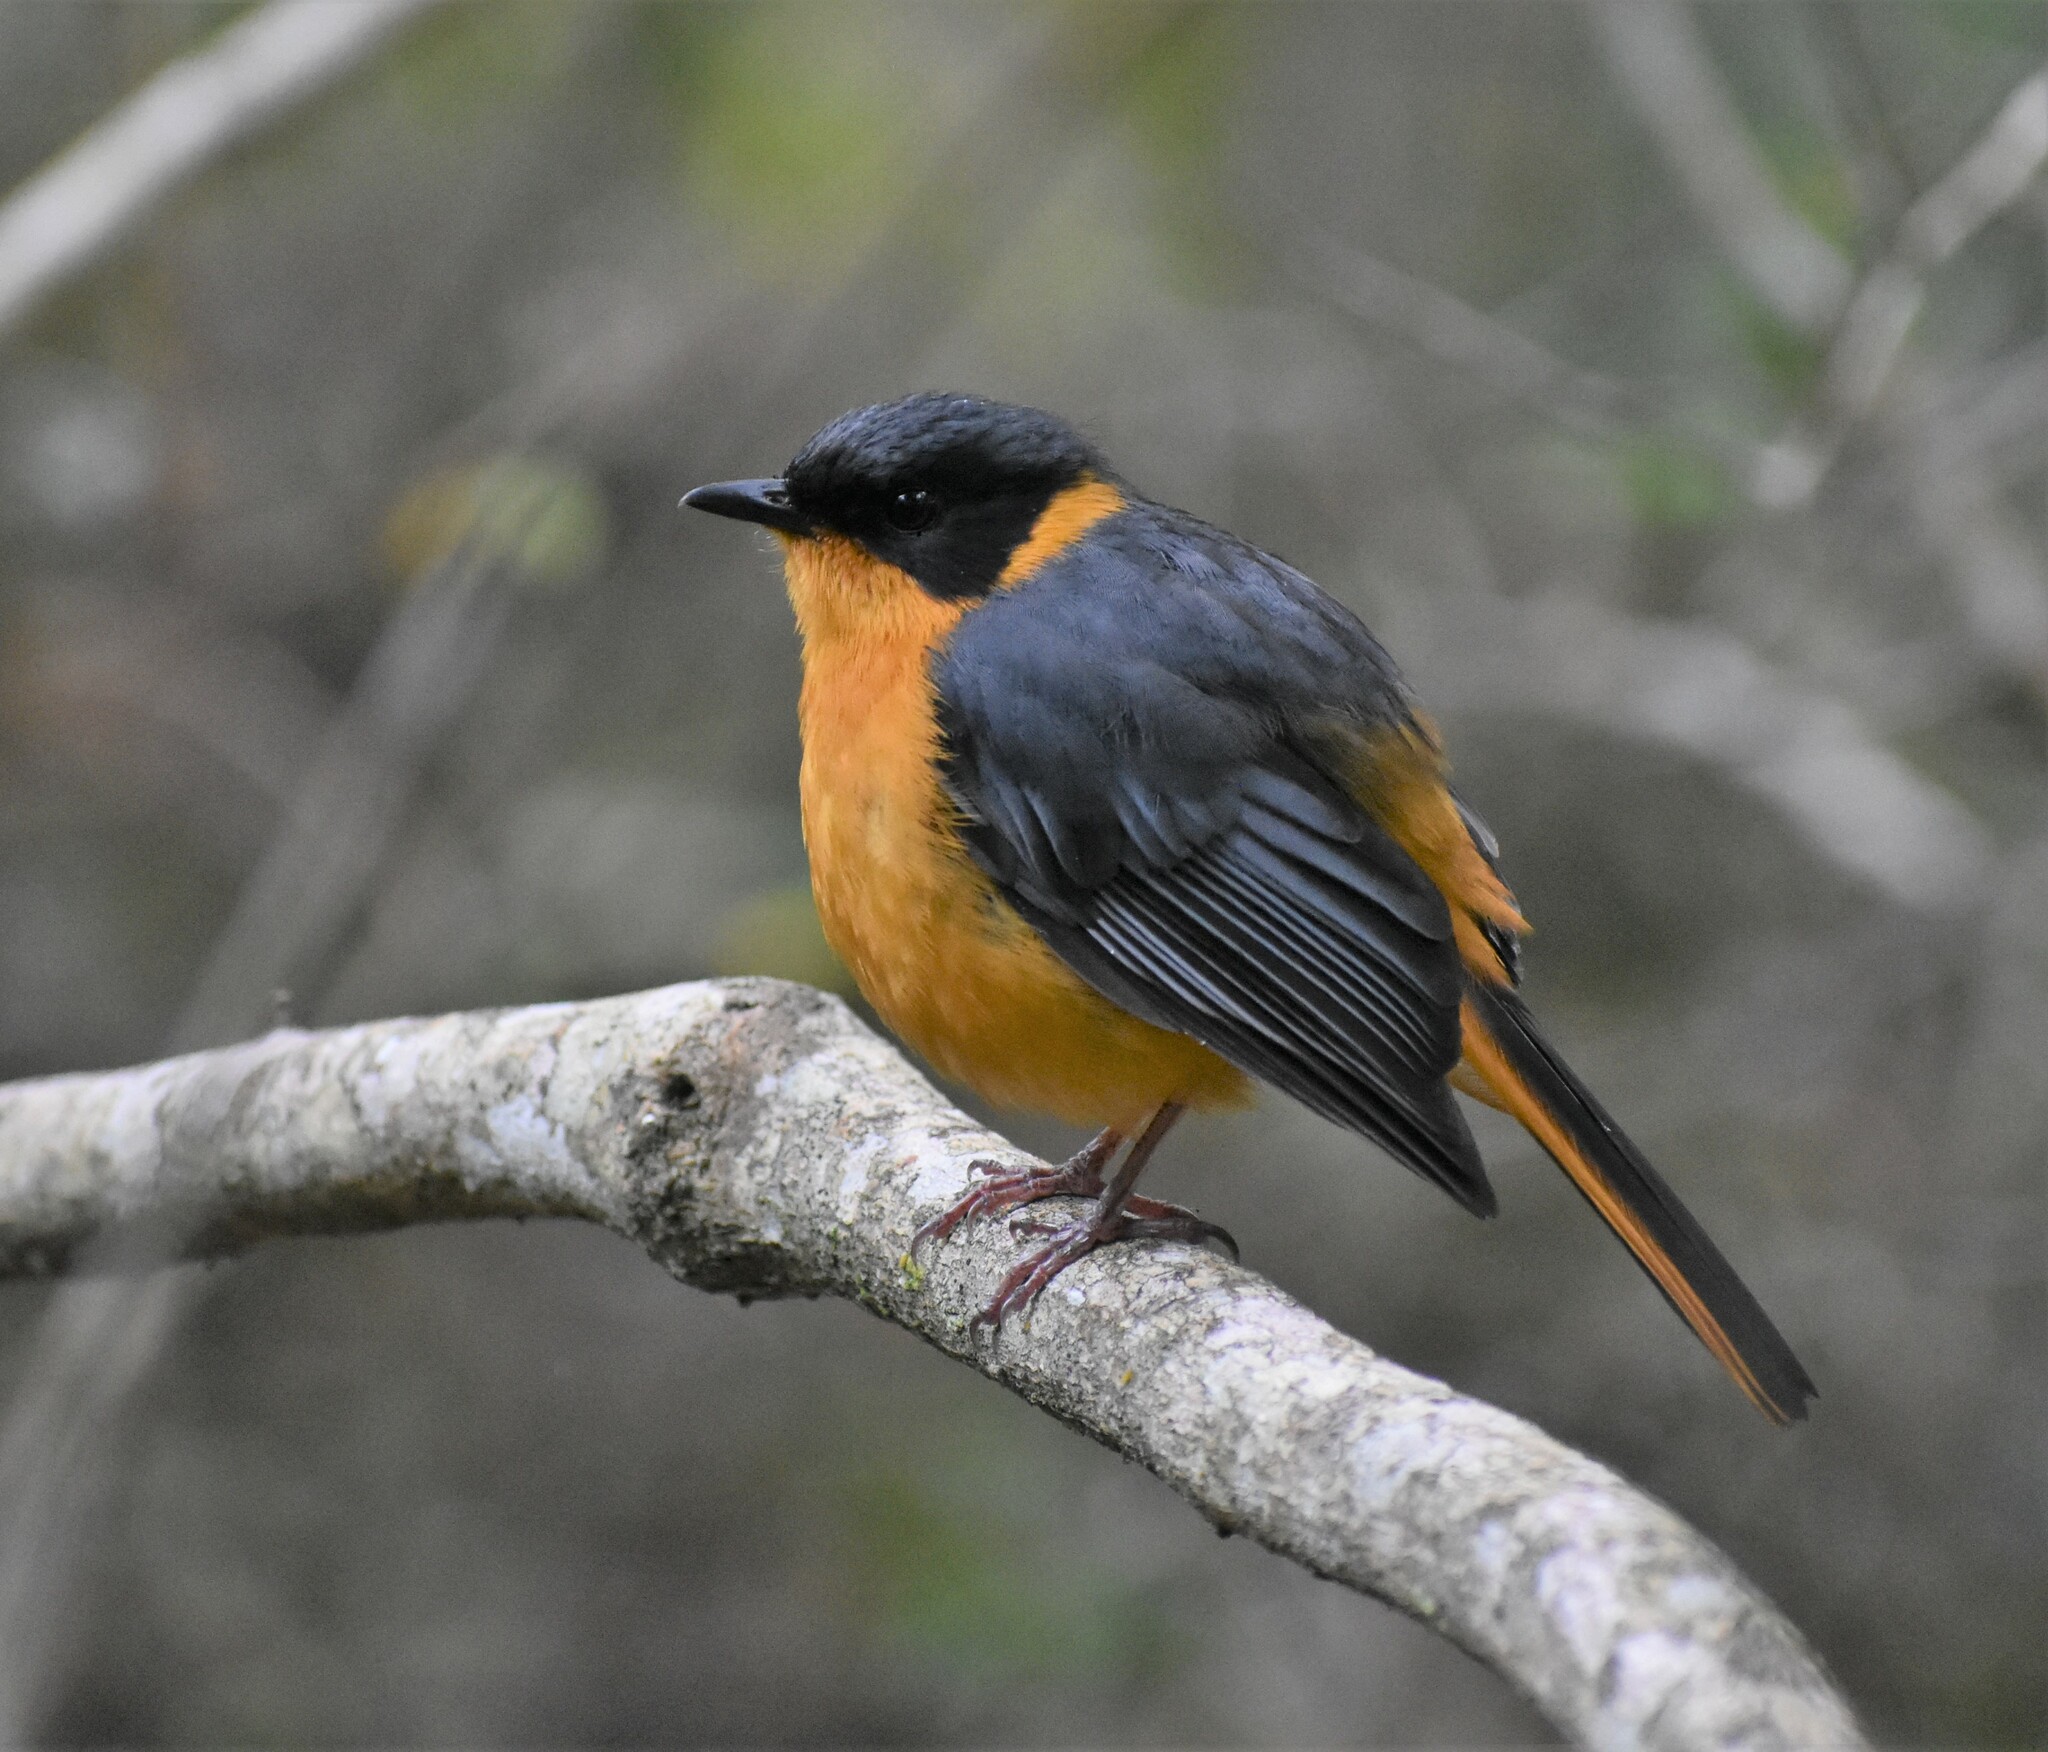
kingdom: Animalia
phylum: Chordata
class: Aves
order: Passeriformes
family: Muscicapidae
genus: Cossypha
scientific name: Cossypha dichroa
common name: Chorister robin-chat
